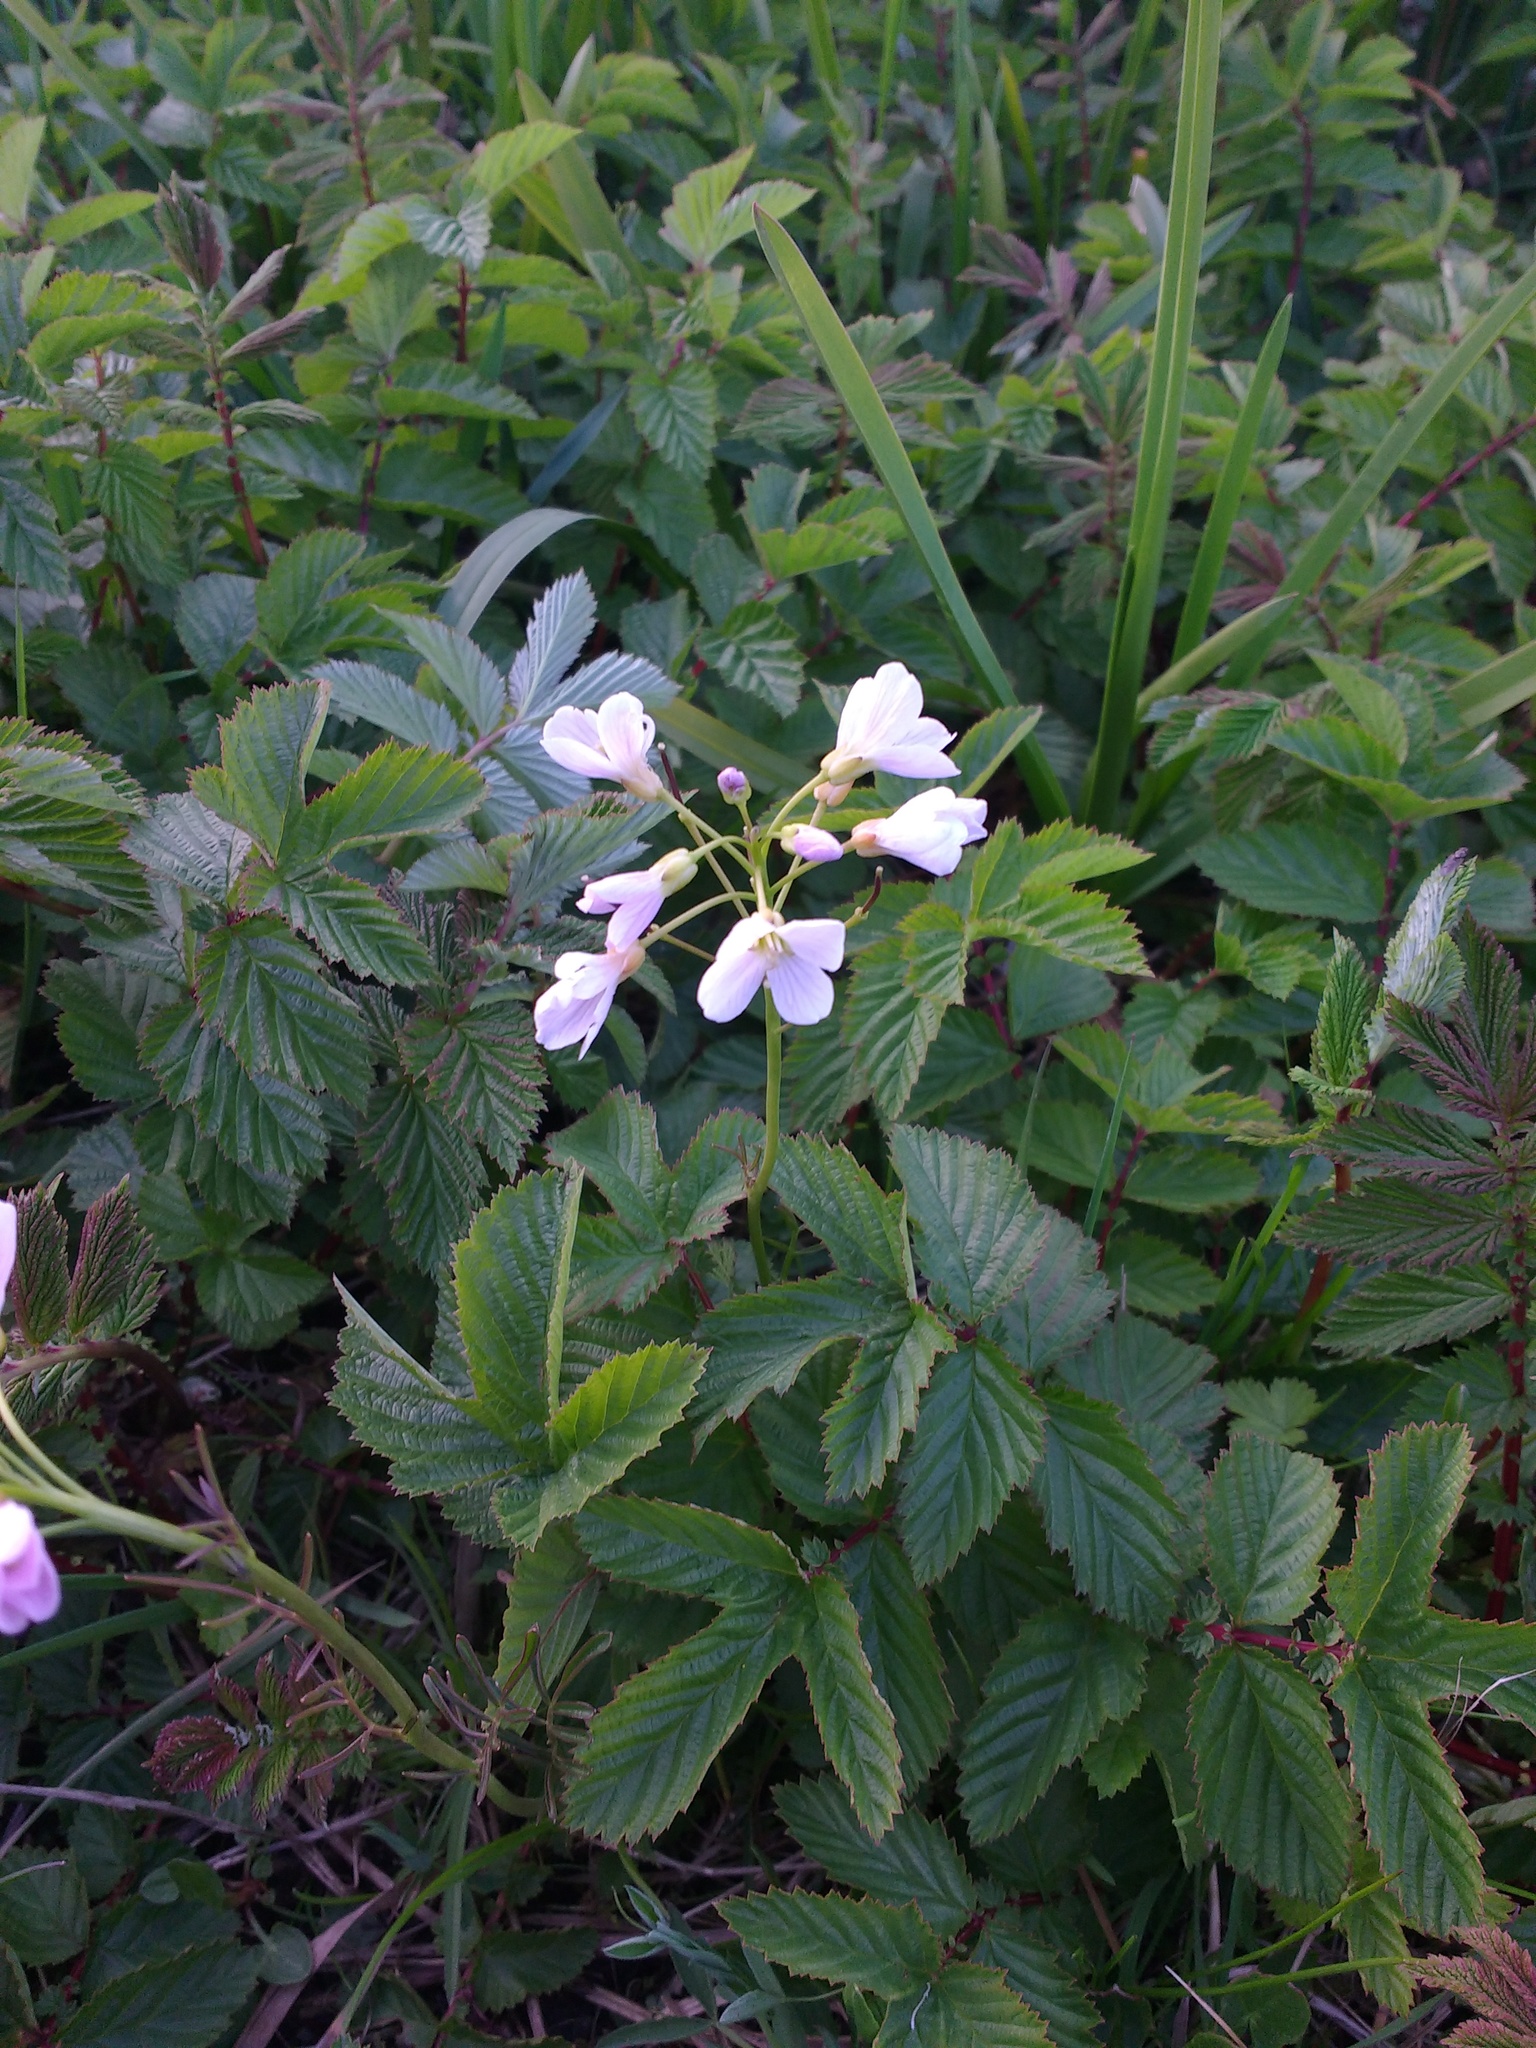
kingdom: Plantae
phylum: Tracheophyta
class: Magnoliopsida
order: Brassicales
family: Brassicaceae
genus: Cardamine
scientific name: Cardamine pratensis
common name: Cuckoo flower
